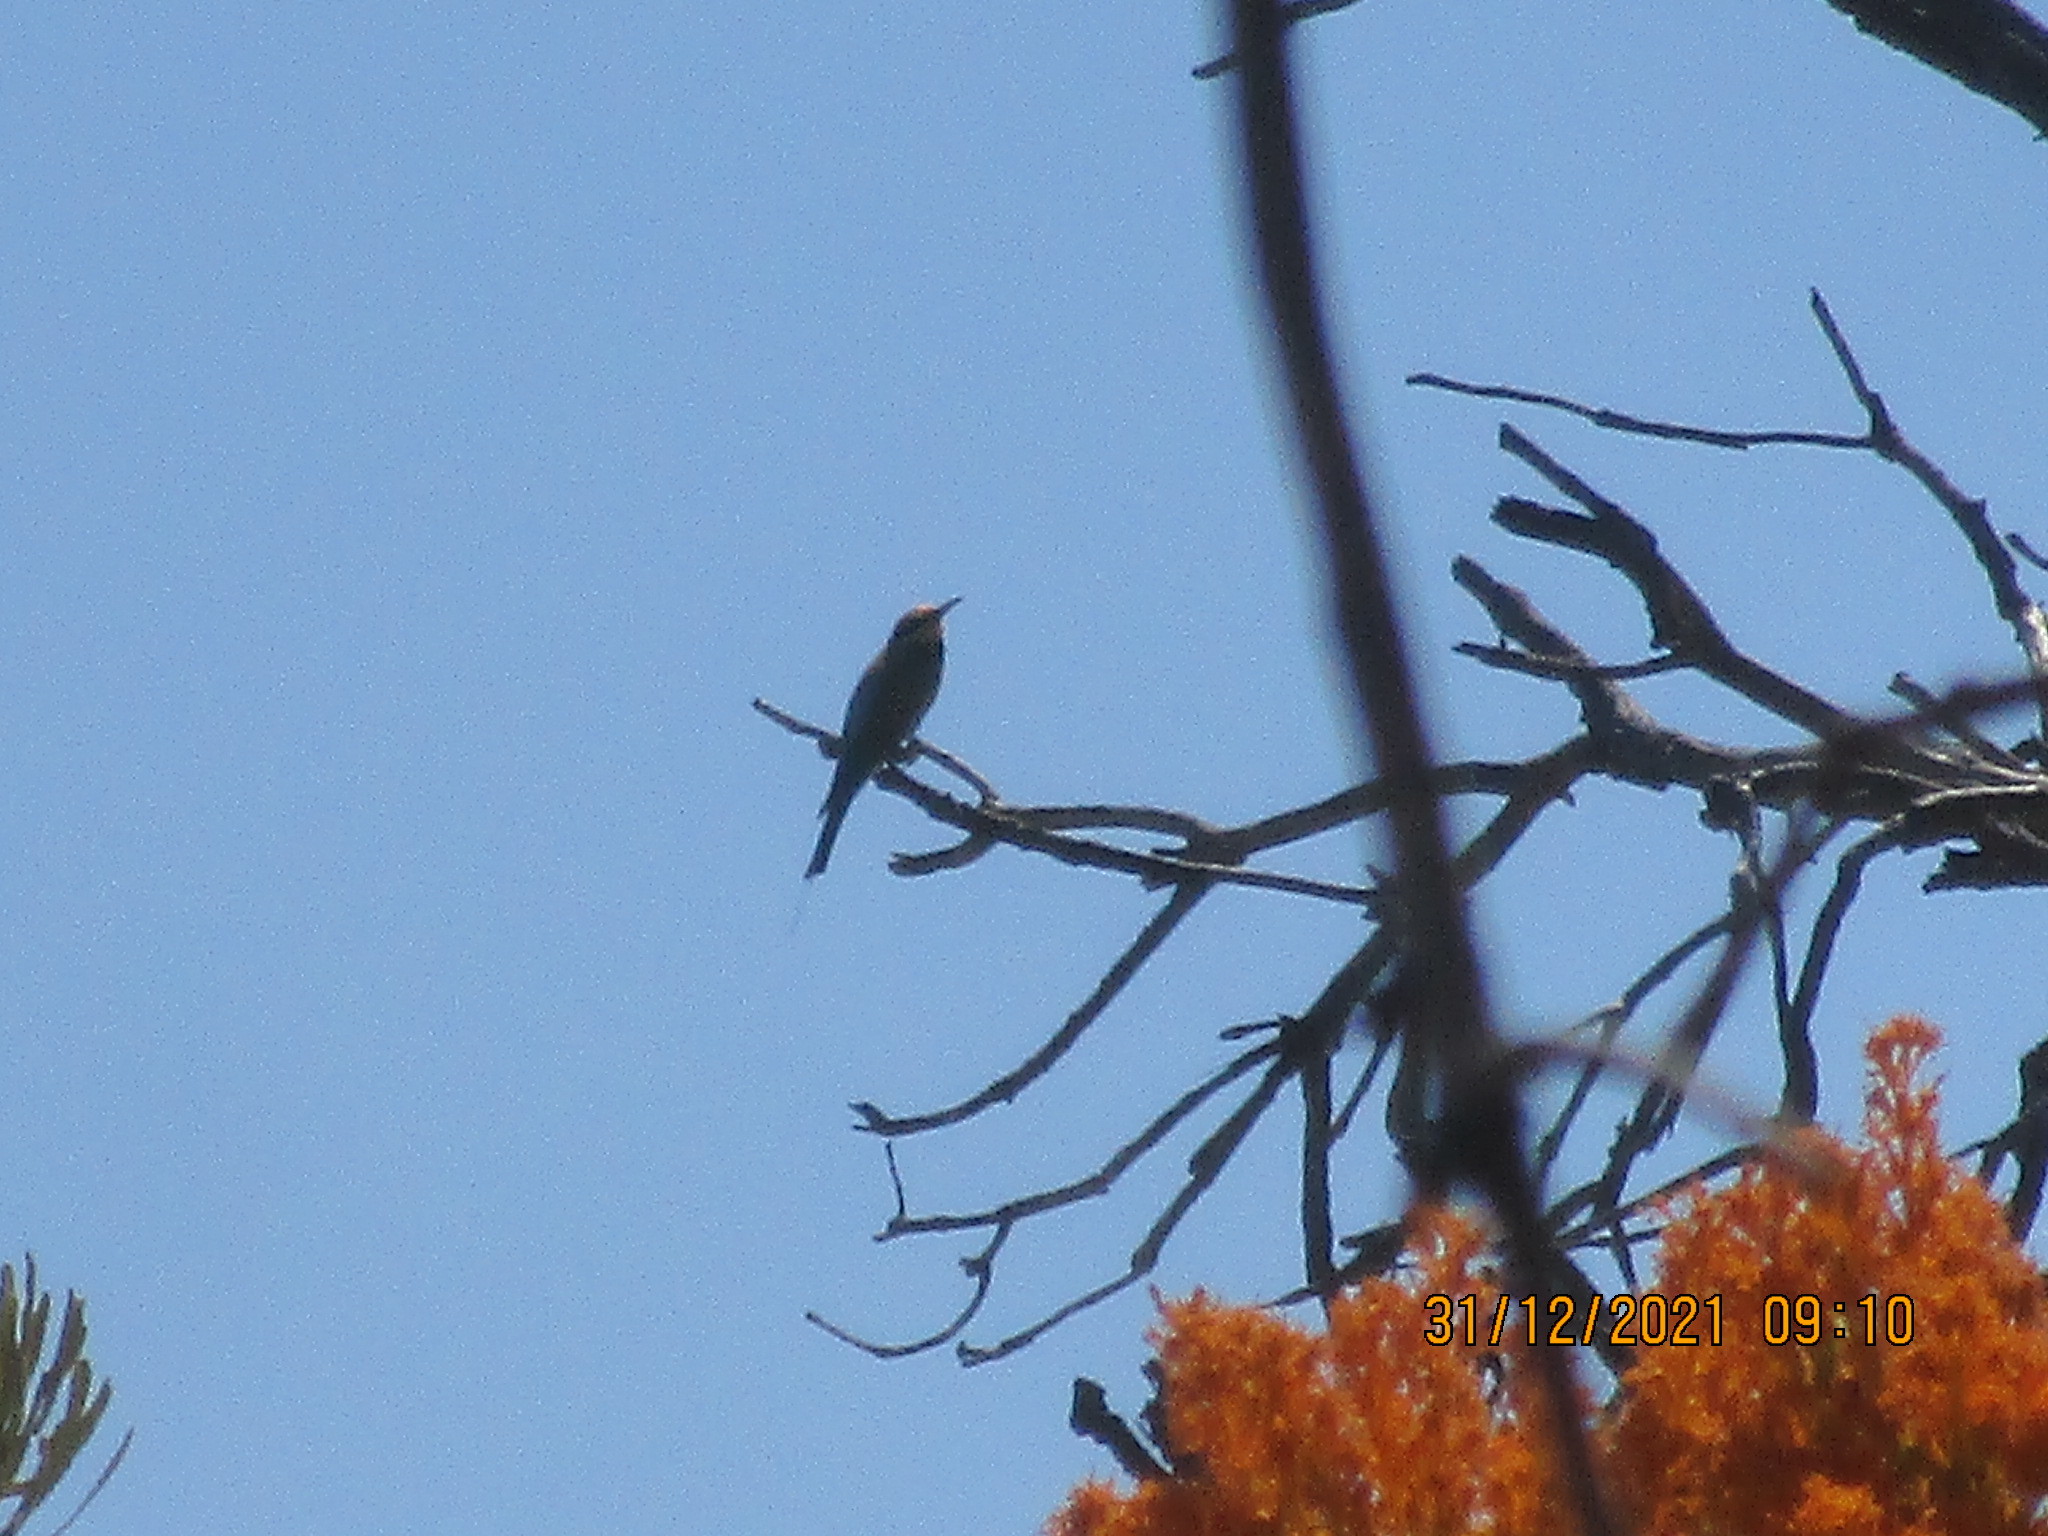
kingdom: Animalia
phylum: Chordata
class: Aves
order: Coraciiformes
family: Meropidae
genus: Merops
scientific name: Merops ornatus
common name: Rainbow bee-eater
